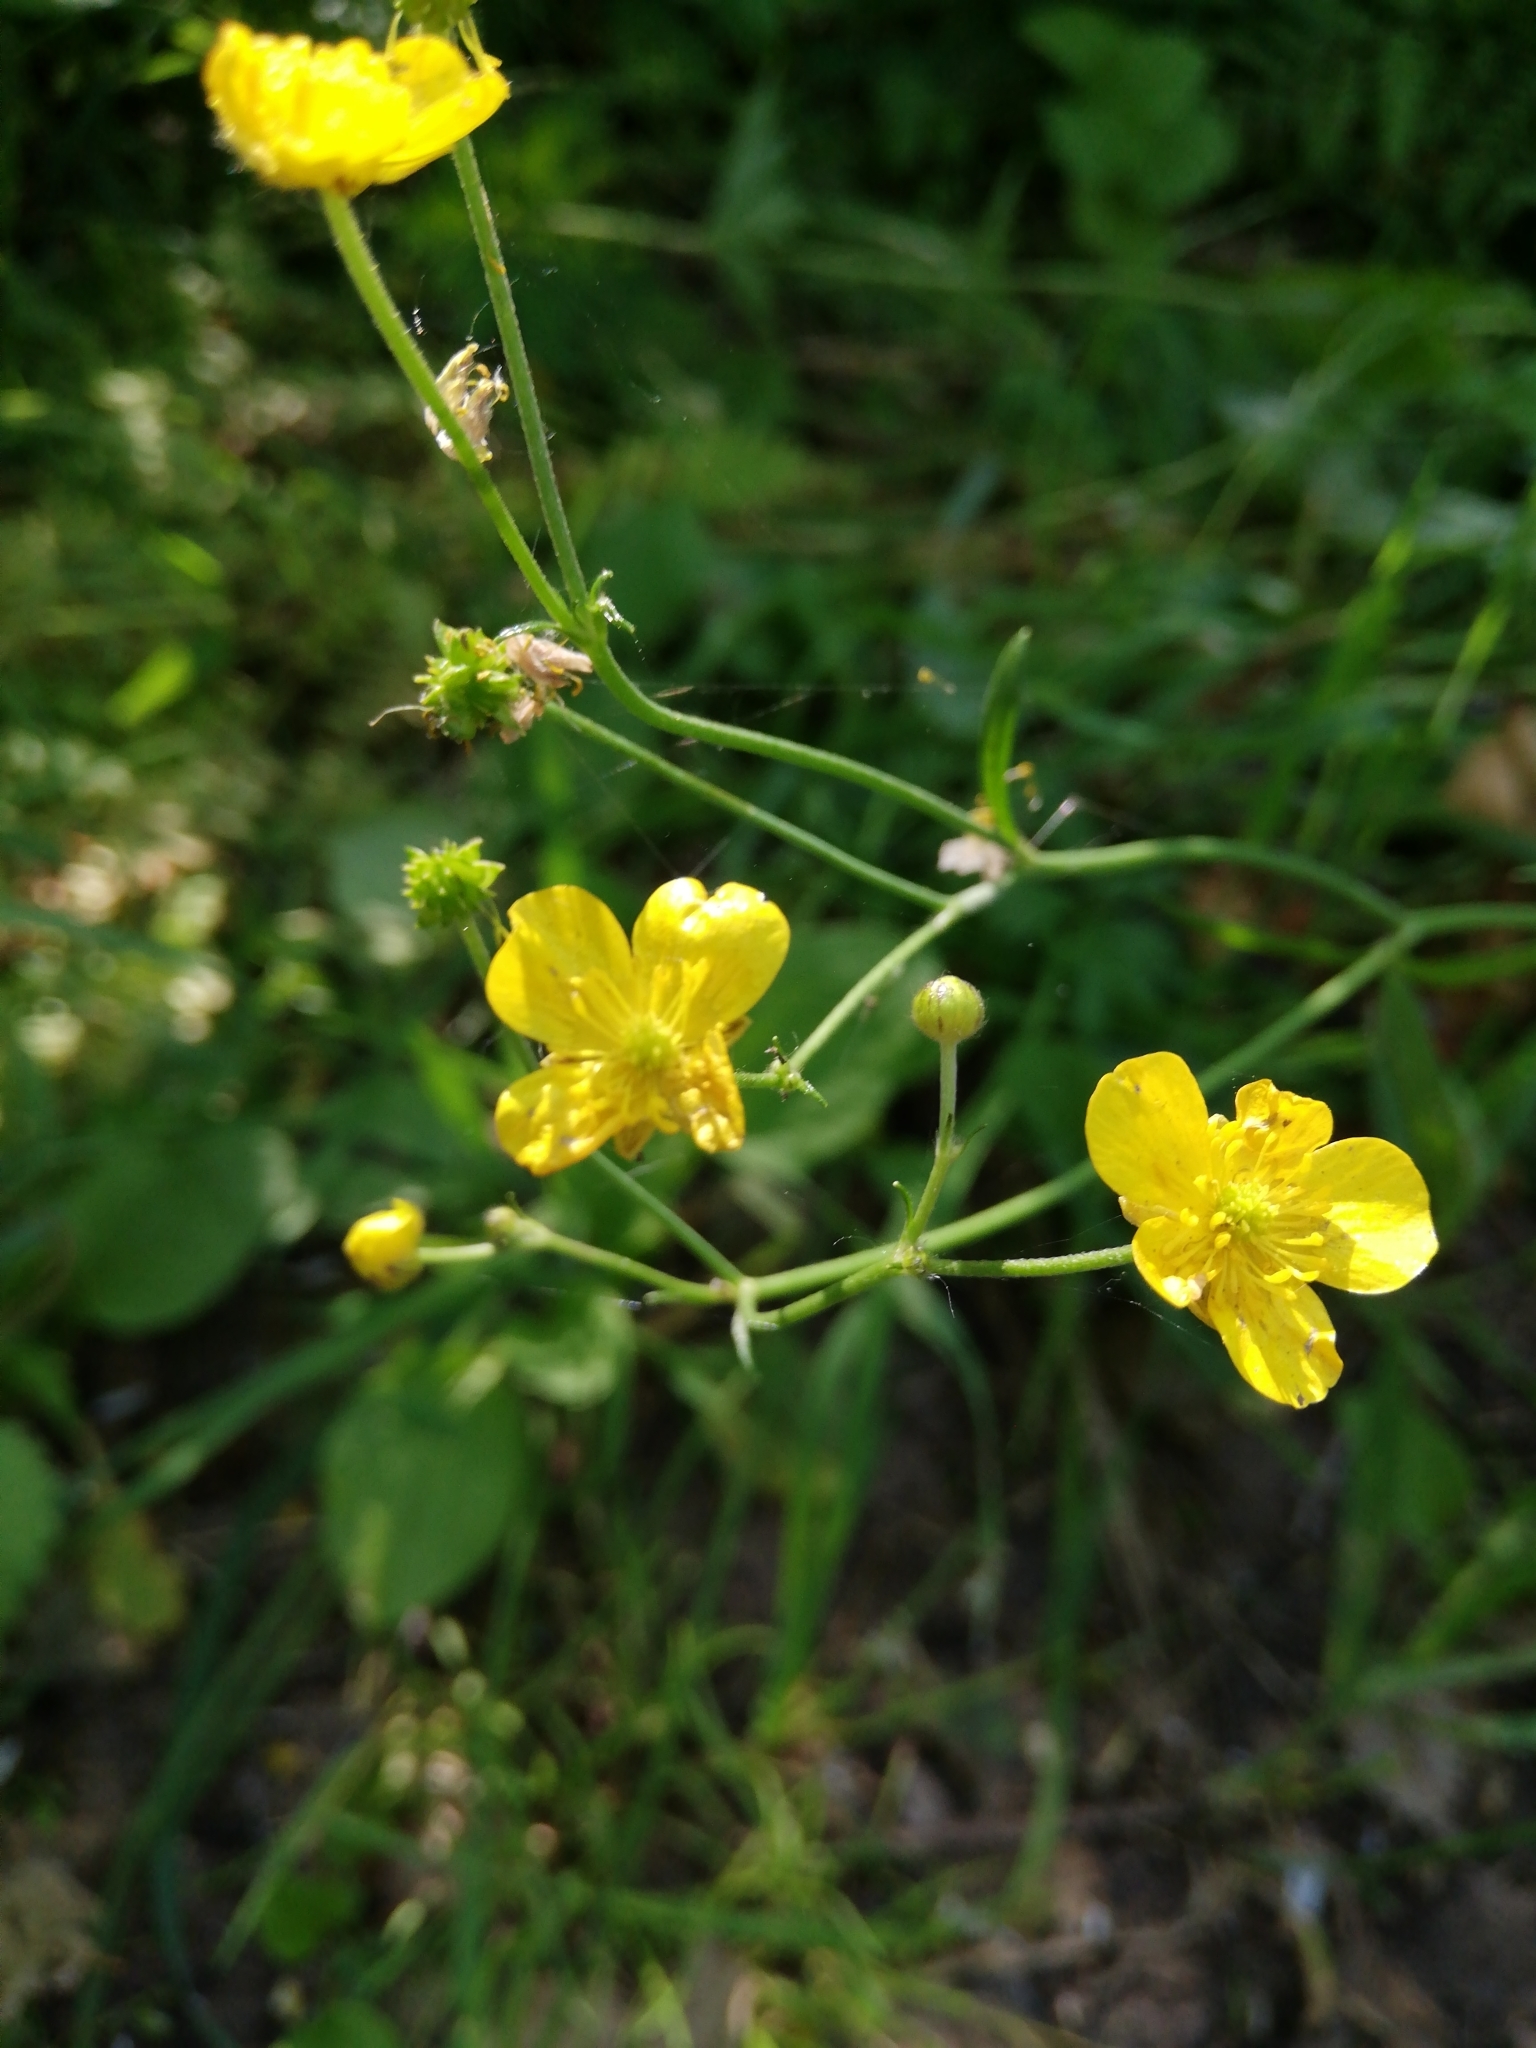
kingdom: Plantae
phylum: Tracheophyta
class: Magnoliopsida
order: Ranunculales
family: Ranunculaceae
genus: Ranunculus
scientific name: Ranunculus acris
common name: Meadow buttercup
